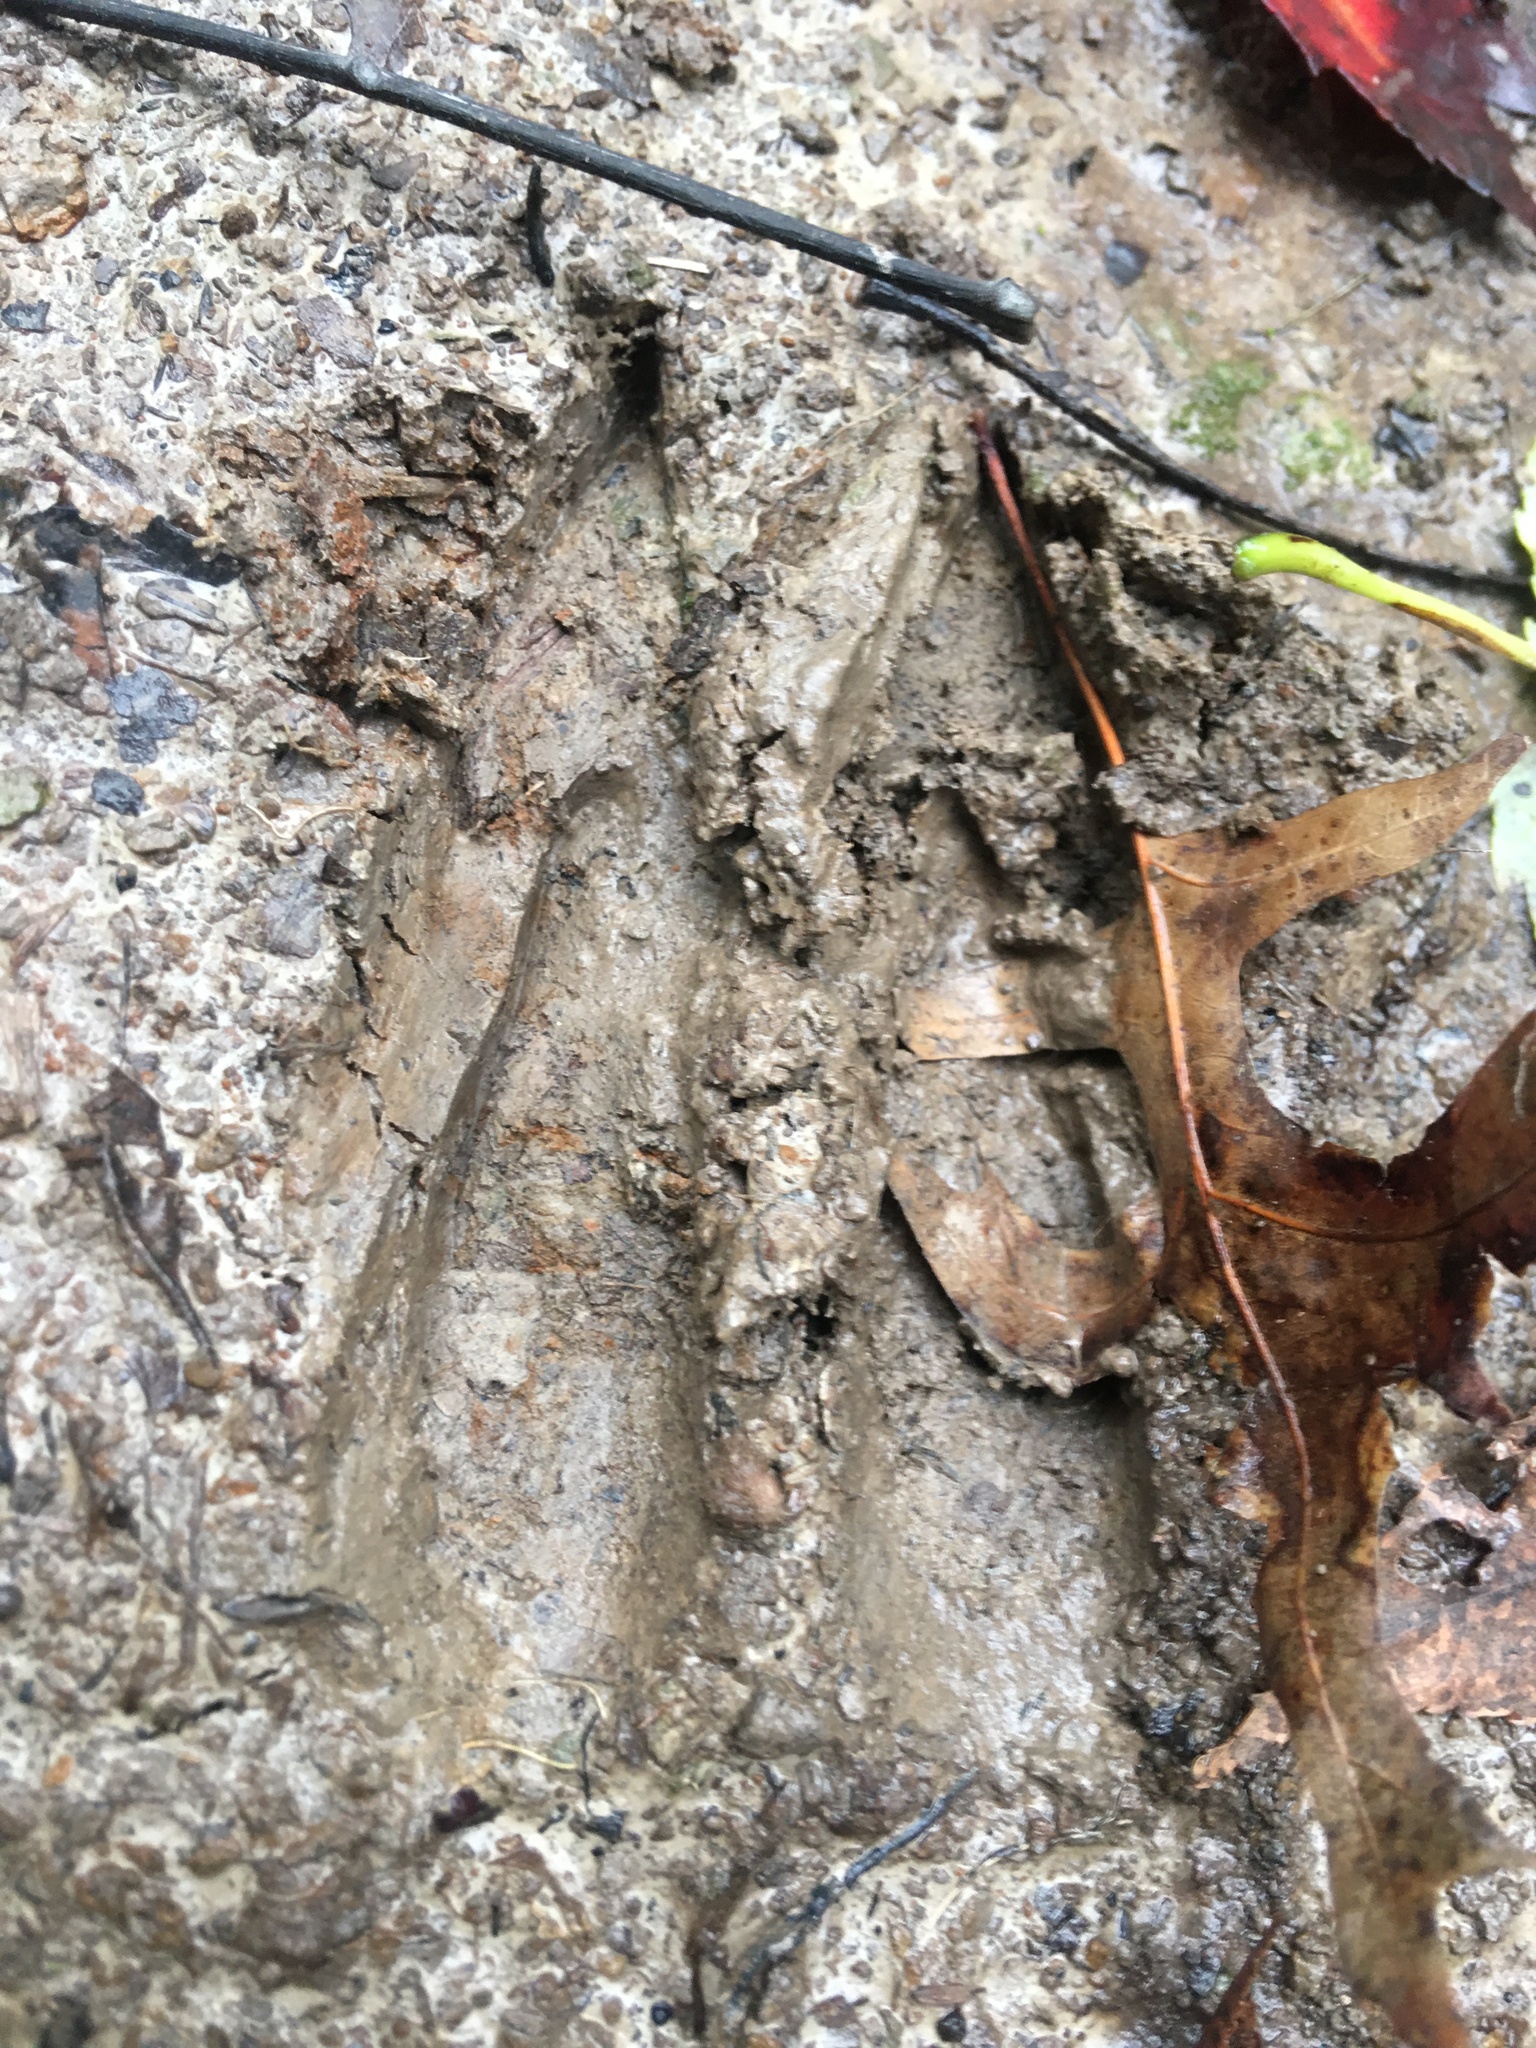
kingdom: Animalia
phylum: Chordata
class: Mammalia
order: Artiodactyla
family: Cervidae
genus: Odocoileus
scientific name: Odocoileus virginianus
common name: White-tailed deer
